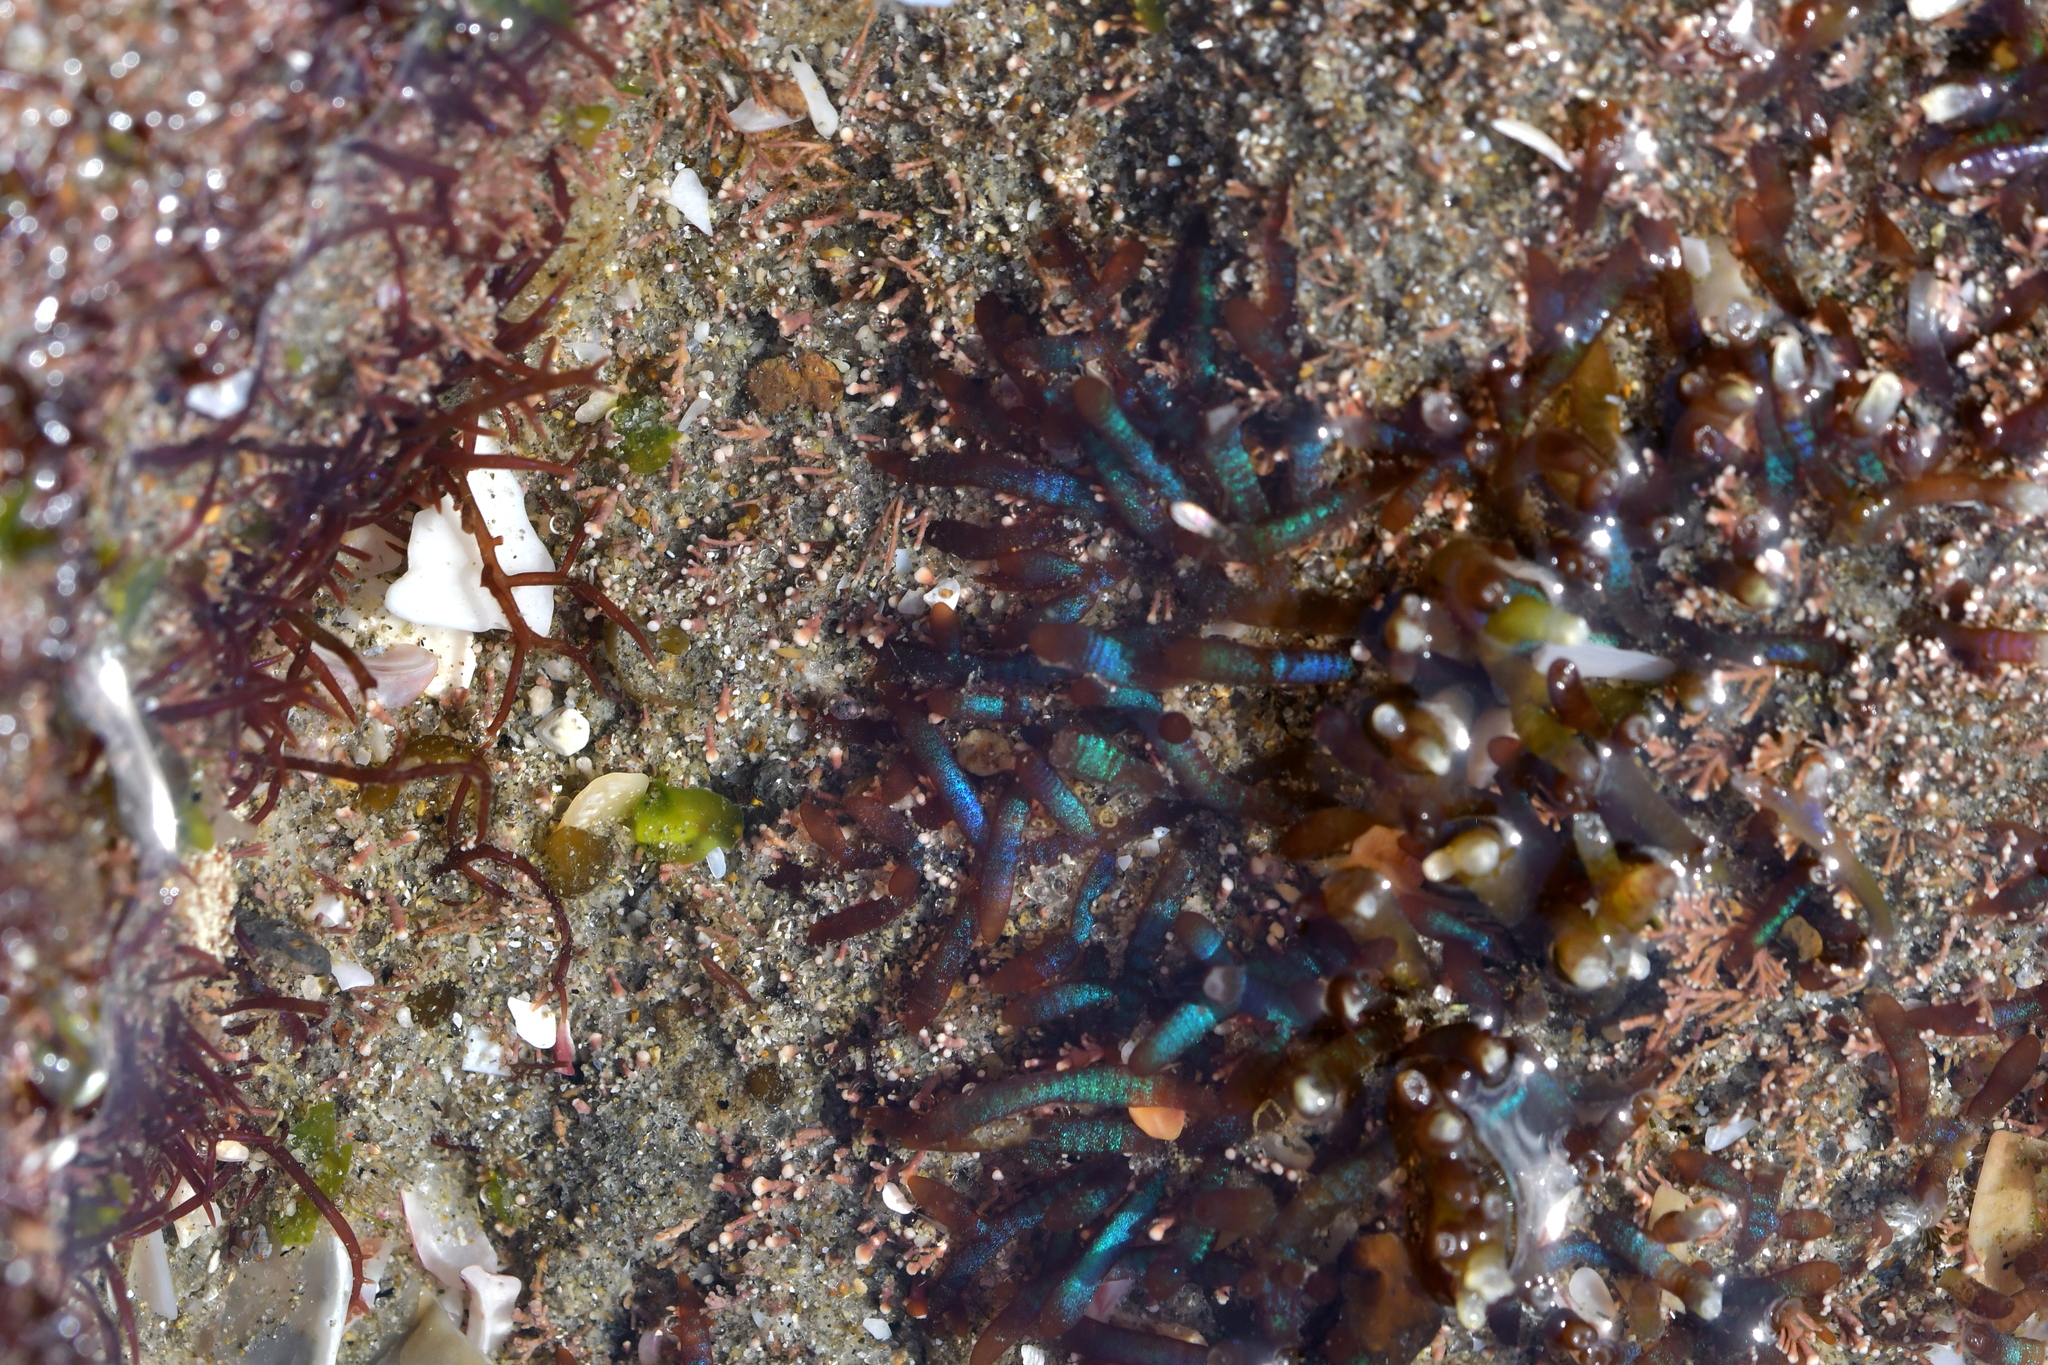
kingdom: Plantae
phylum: Rhodophyta
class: Florideophyceae
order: Rhodymeniales
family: Champiaceae
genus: Champia
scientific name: Champia laingii
